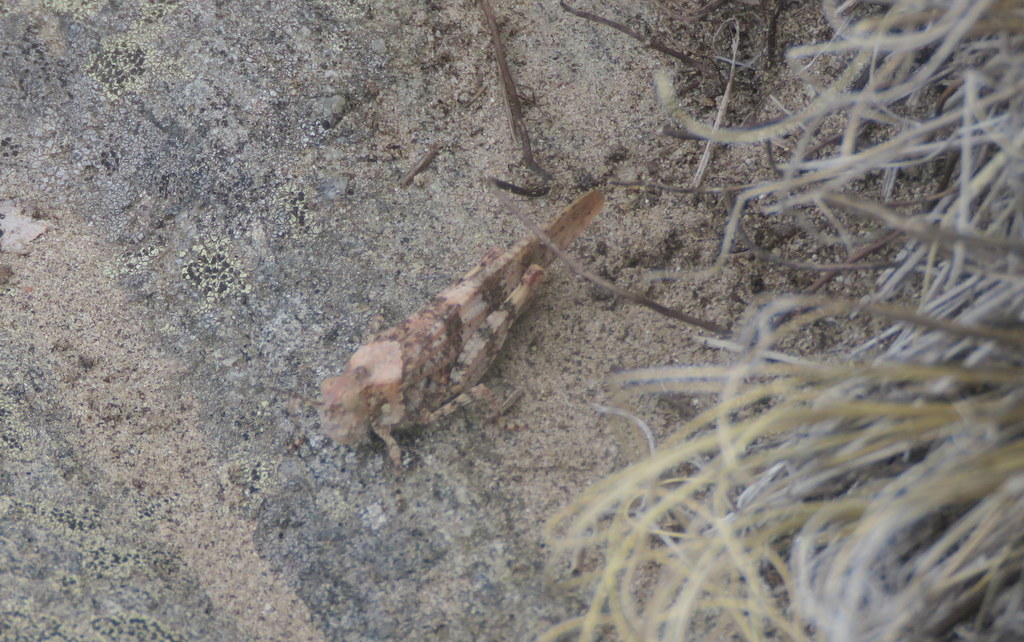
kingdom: Animalia
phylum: Arthropoda
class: Insecta
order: Orthoptera
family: Acrididae
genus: Trimerotropis
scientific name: Trimerotropis pallidipennis
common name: Pallid-winged grasshopper
